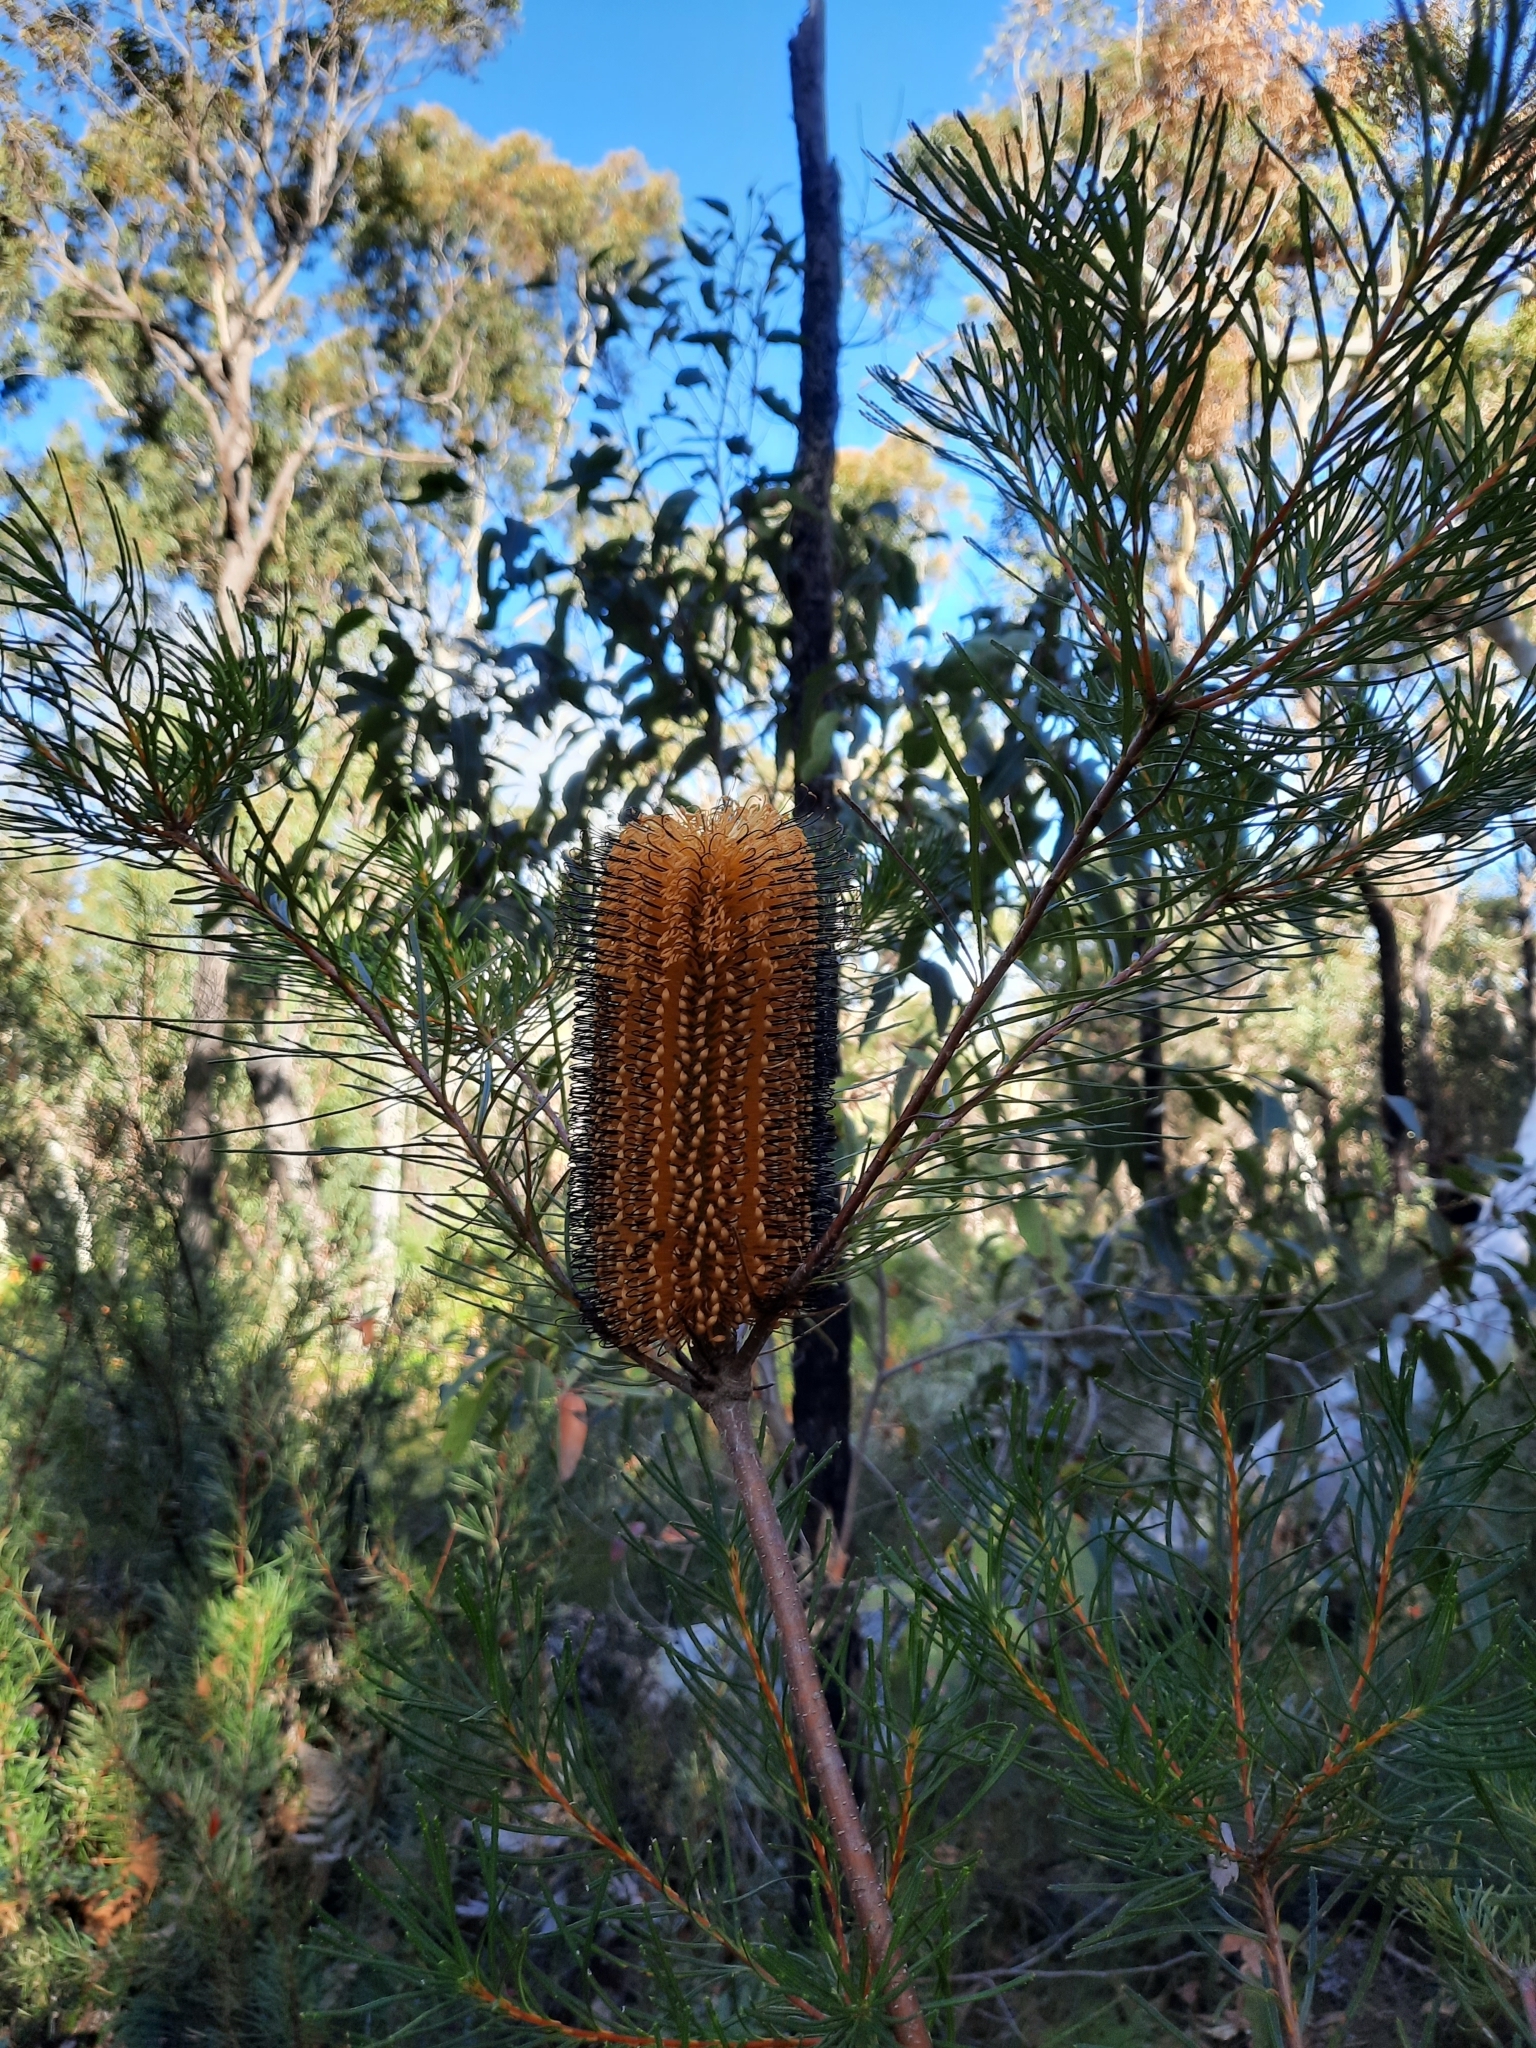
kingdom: Plantae
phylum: Tracheophyta
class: Magnoliopsida
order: Proteales
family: Proteaceae
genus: Banksia
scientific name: Banksia spinulosa
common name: Hairpin banksia
